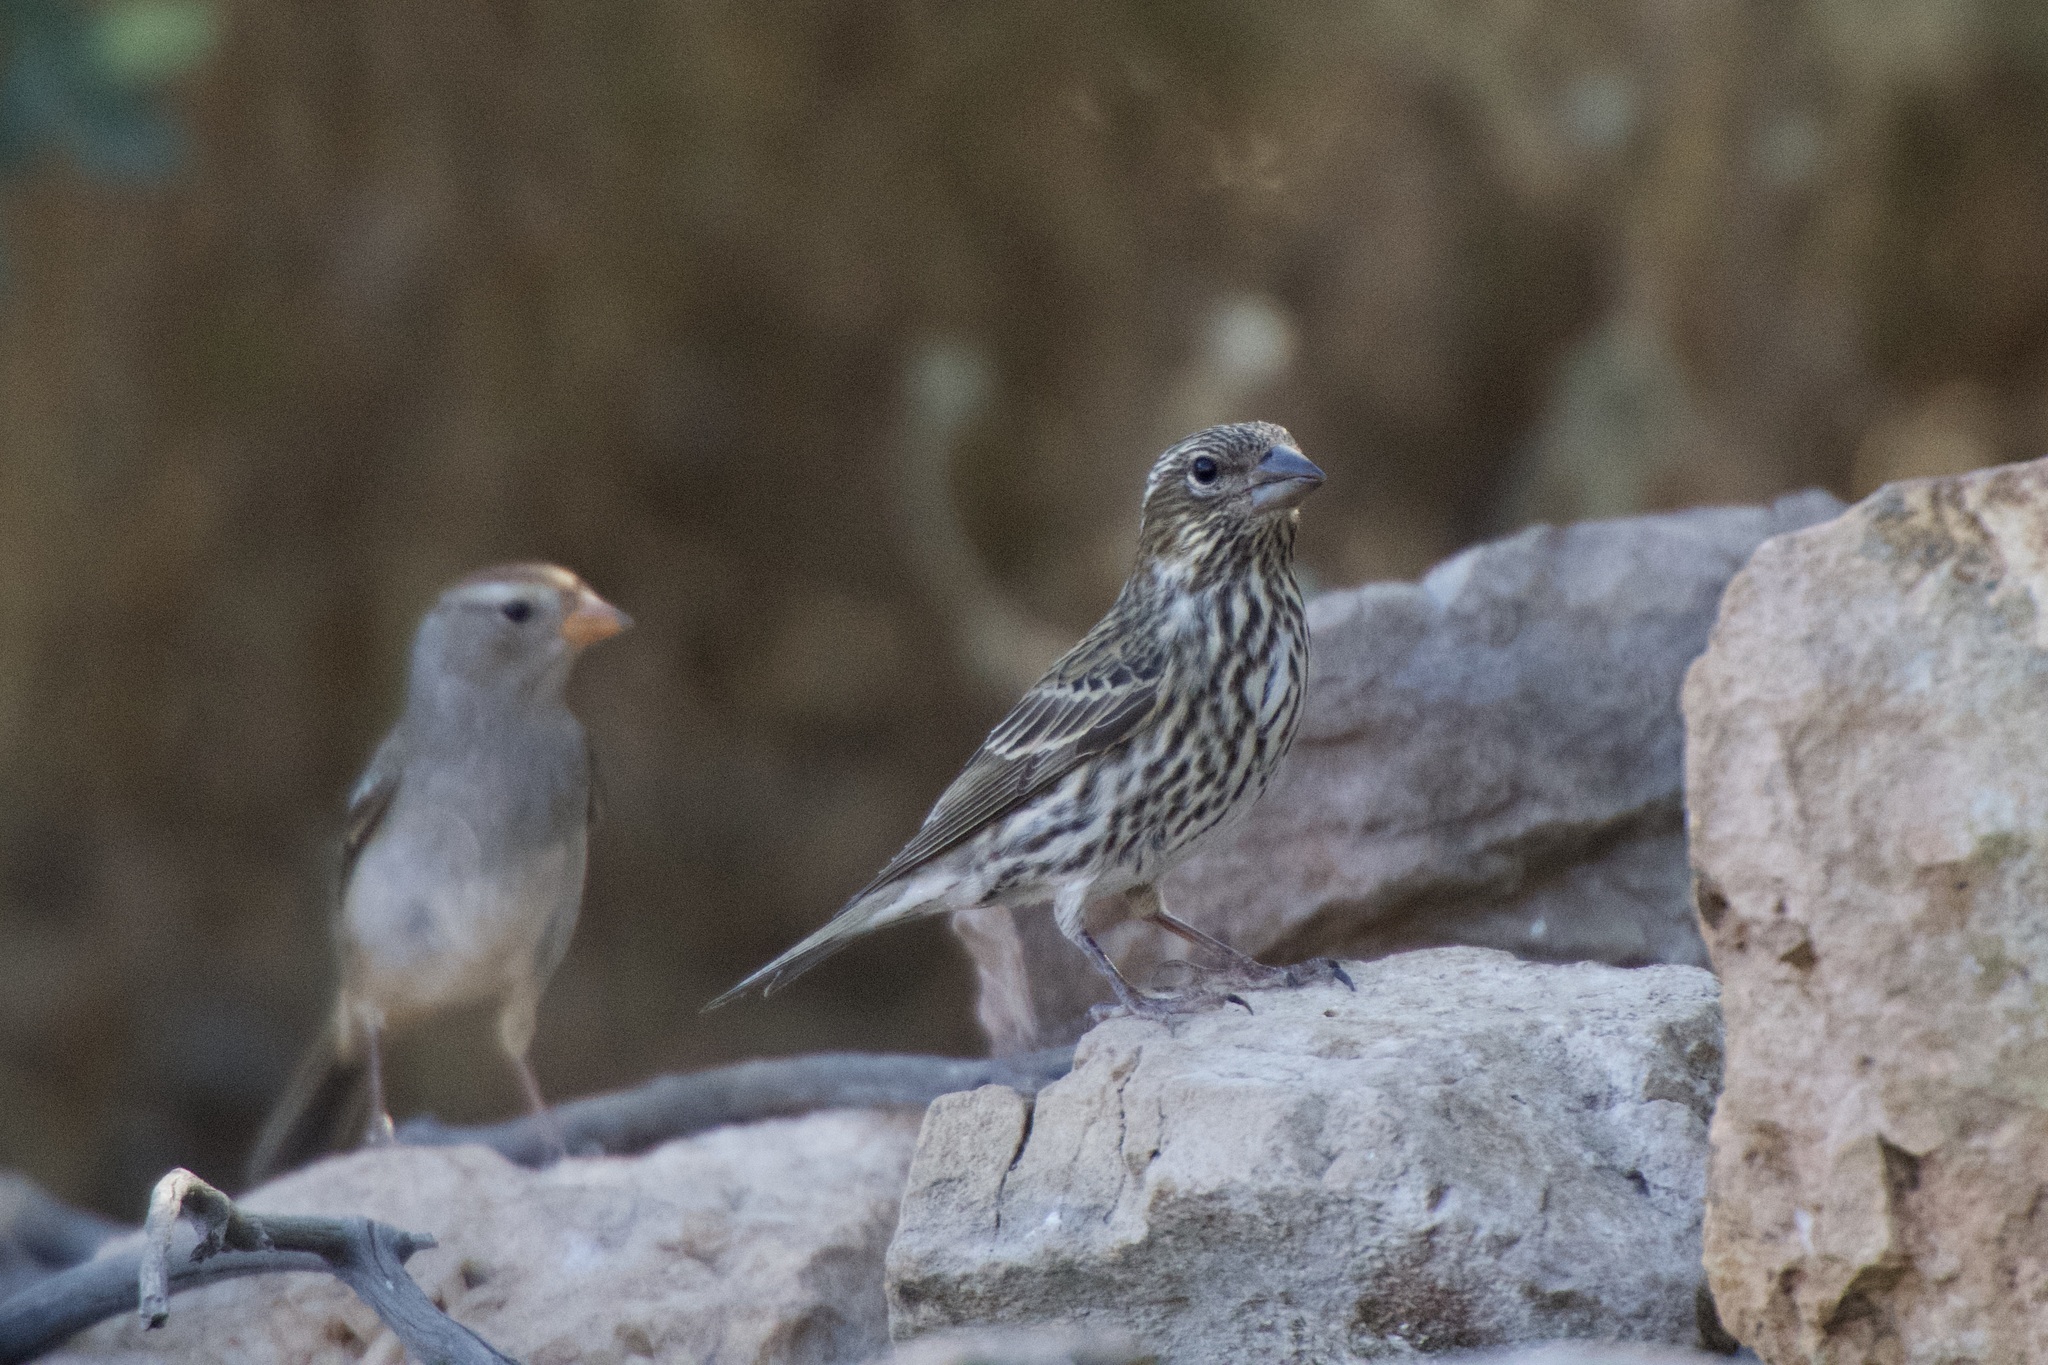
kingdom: Animalia
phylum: Chordata
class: Aves
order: Passeriformes
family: Fringillidae
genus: Haemorhous
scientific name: Haemorhous cassinii
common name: Cassin's finch
